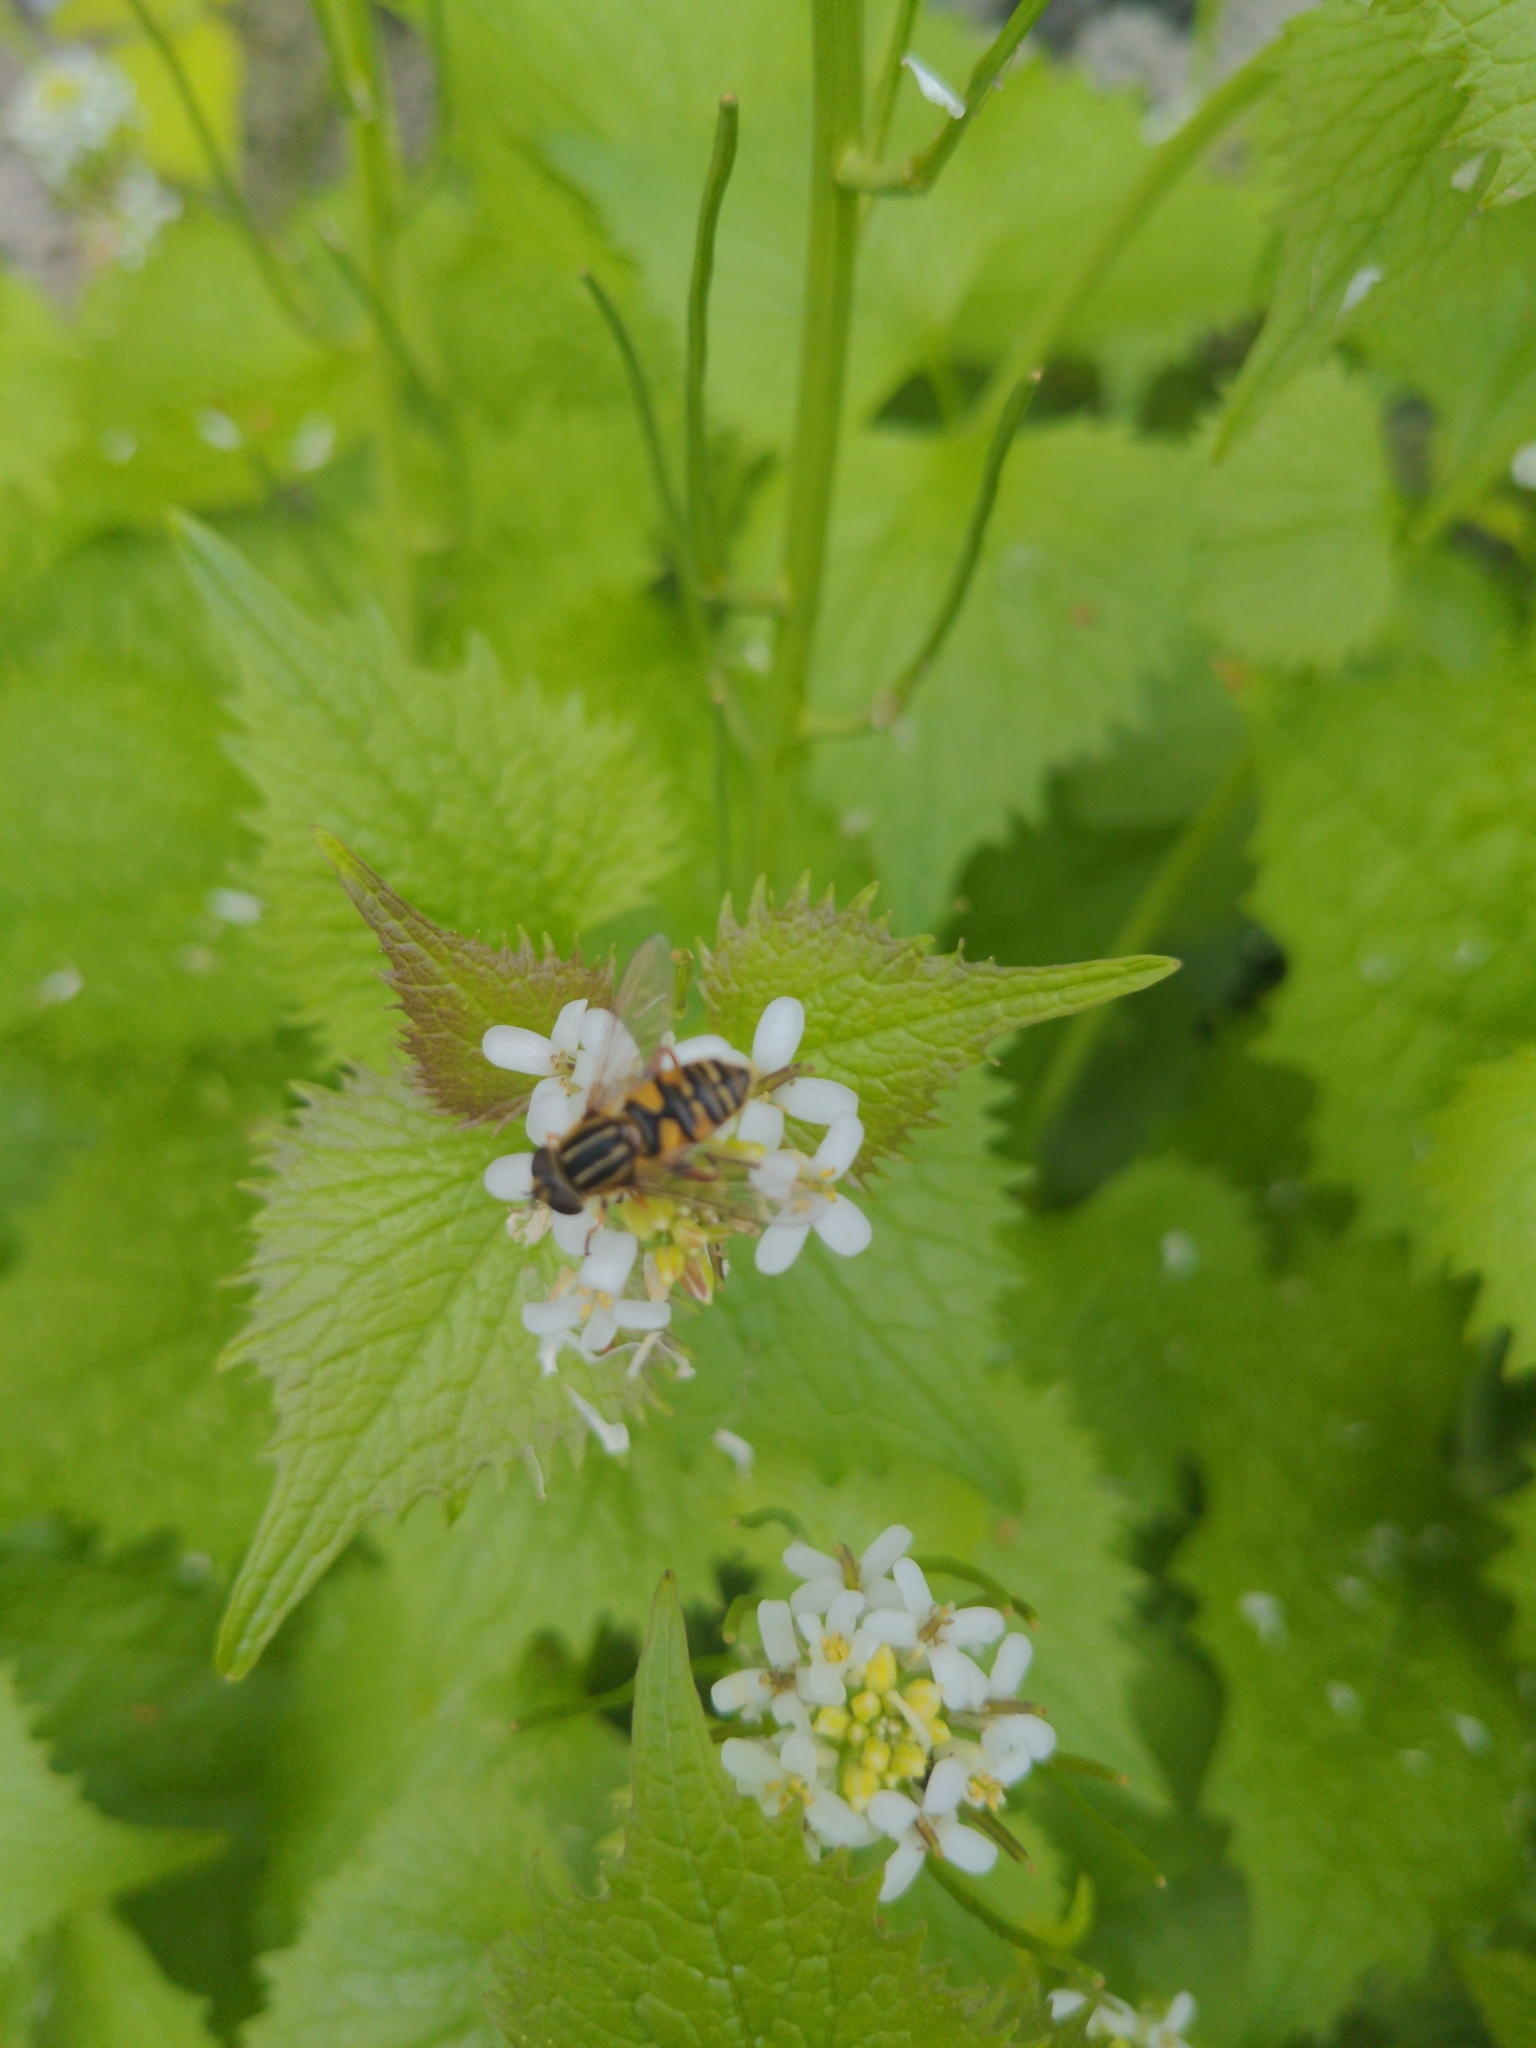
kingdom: Animalia
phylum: Arthropoda
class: Insecta
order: Diptera
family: Syrphidae
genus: Helophilus
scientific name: Helophilus pendulus
